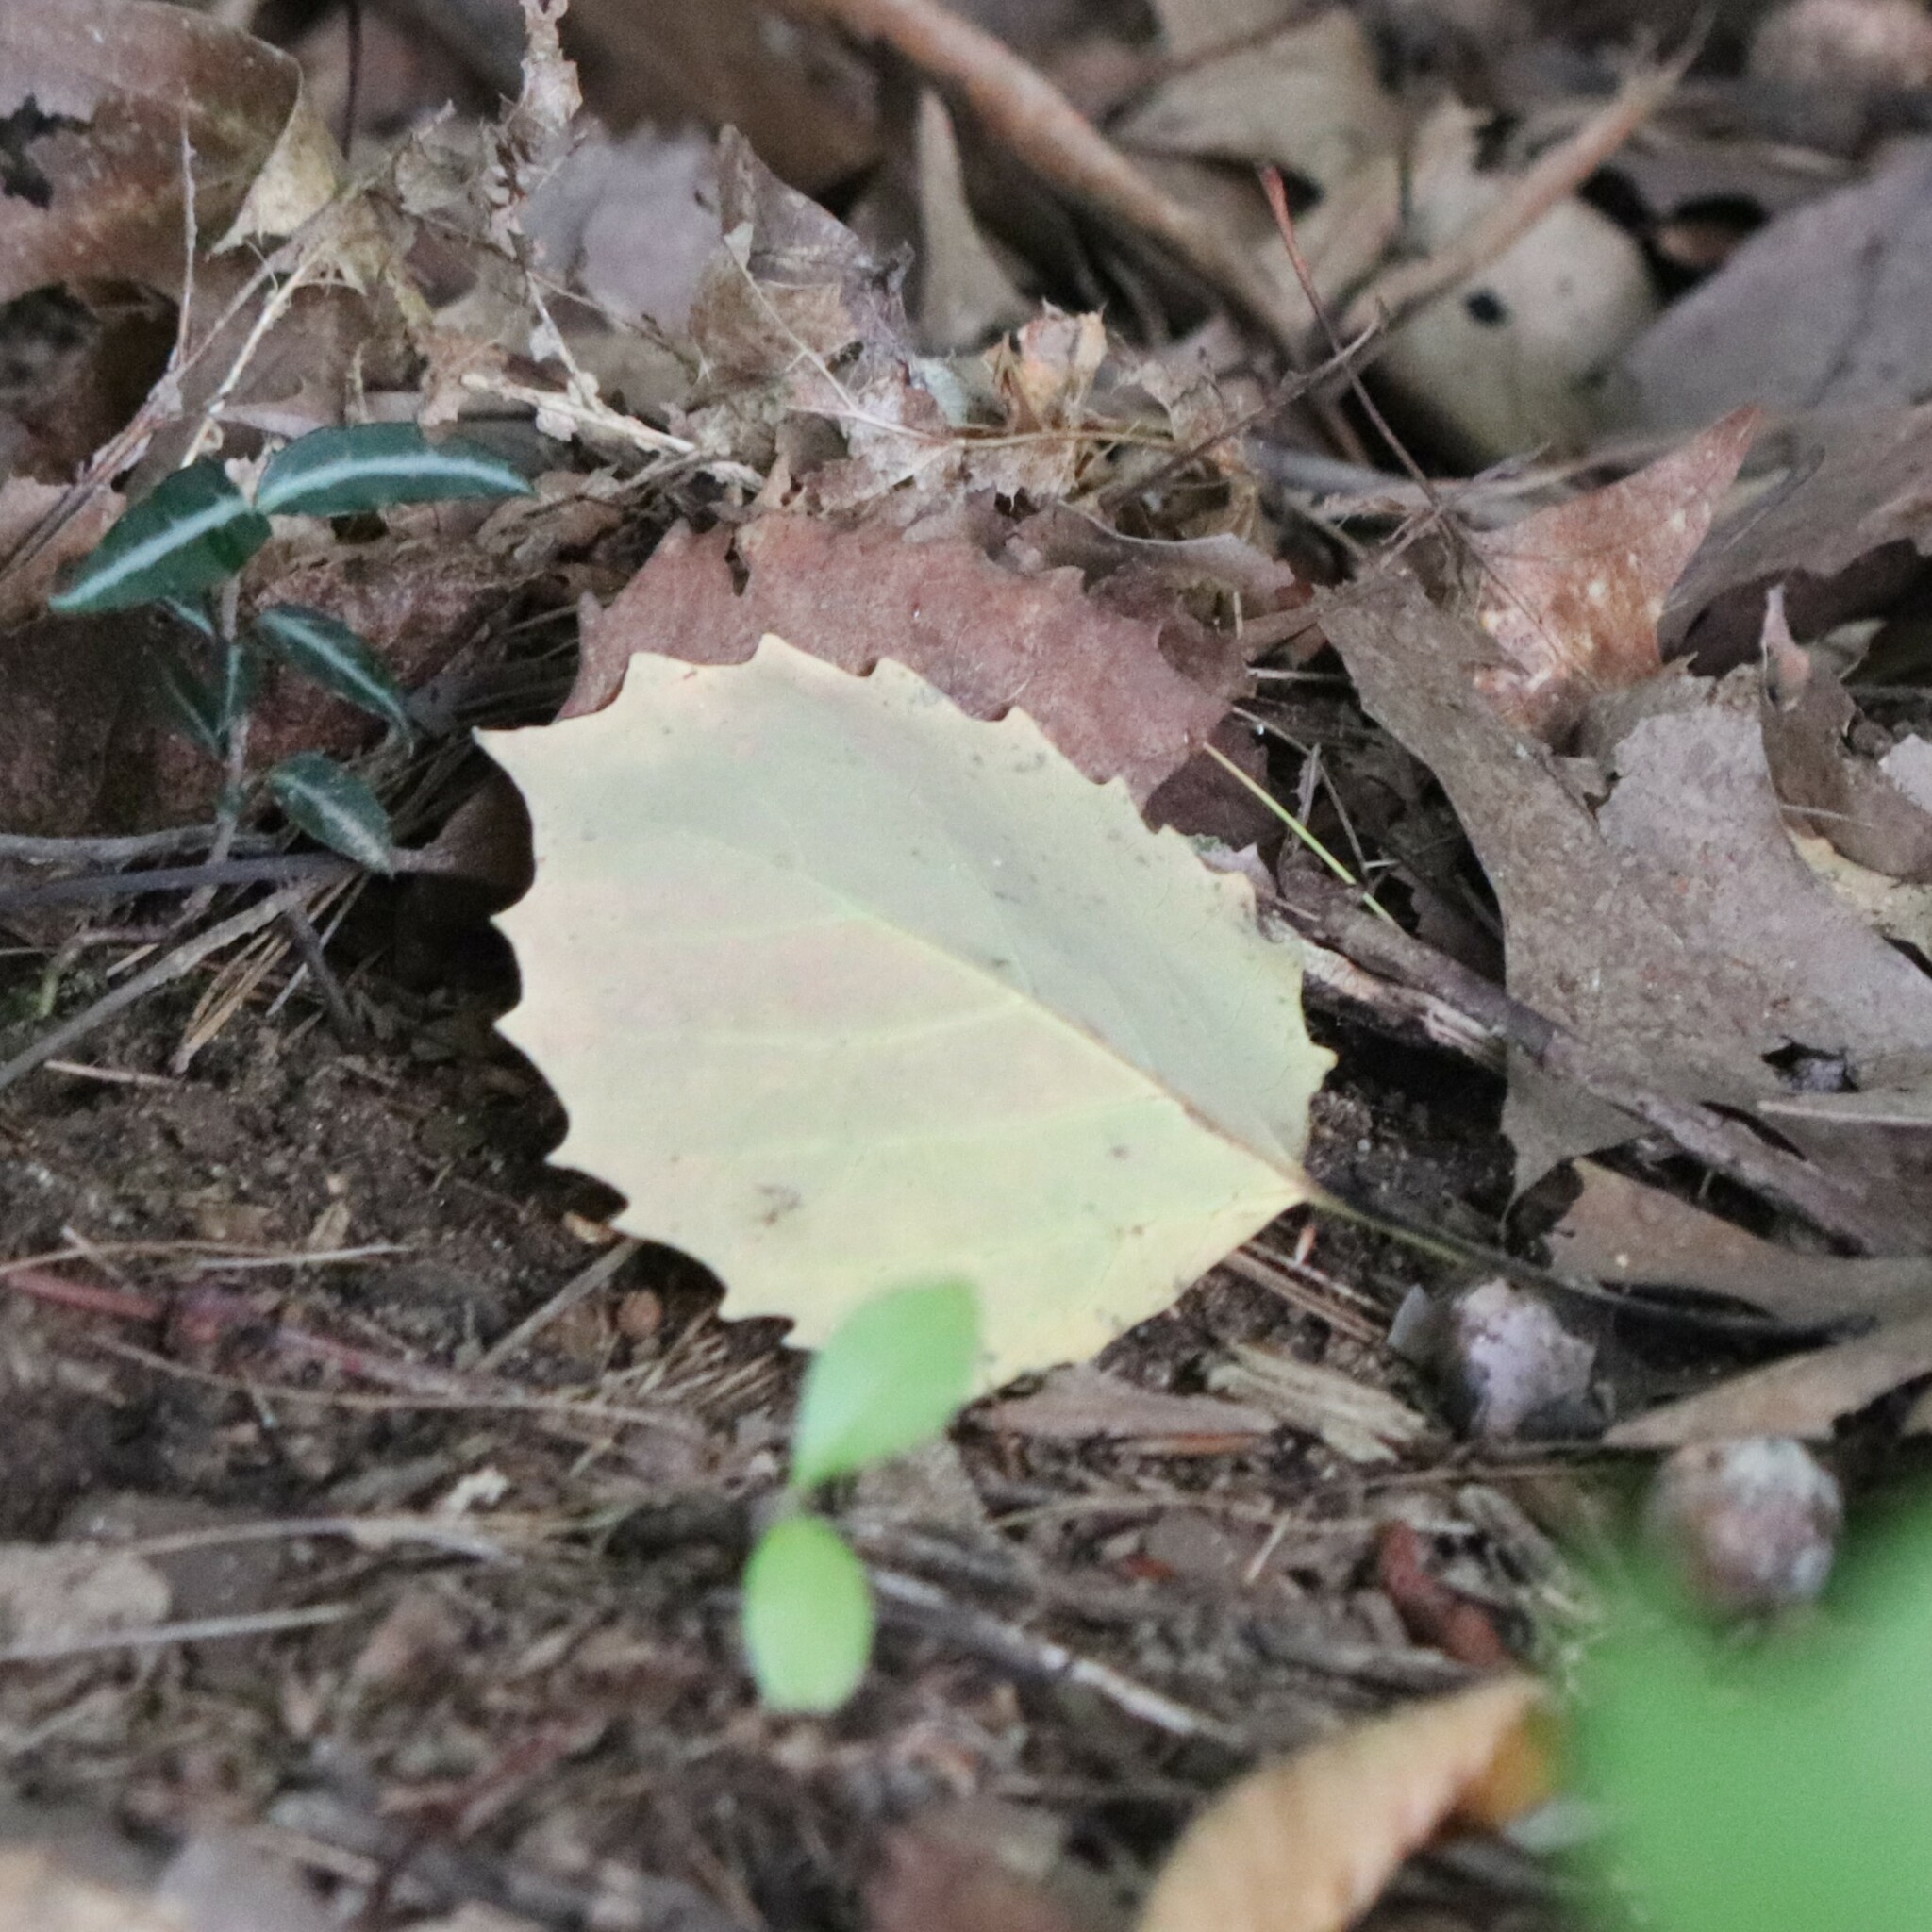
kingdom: Plantae
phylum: Tracheophyta
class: Magnoliopsida
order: Malpighiales
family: Salicaceae
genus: Populus
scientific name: Populus grandidentata
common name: Bigtooth aspen
